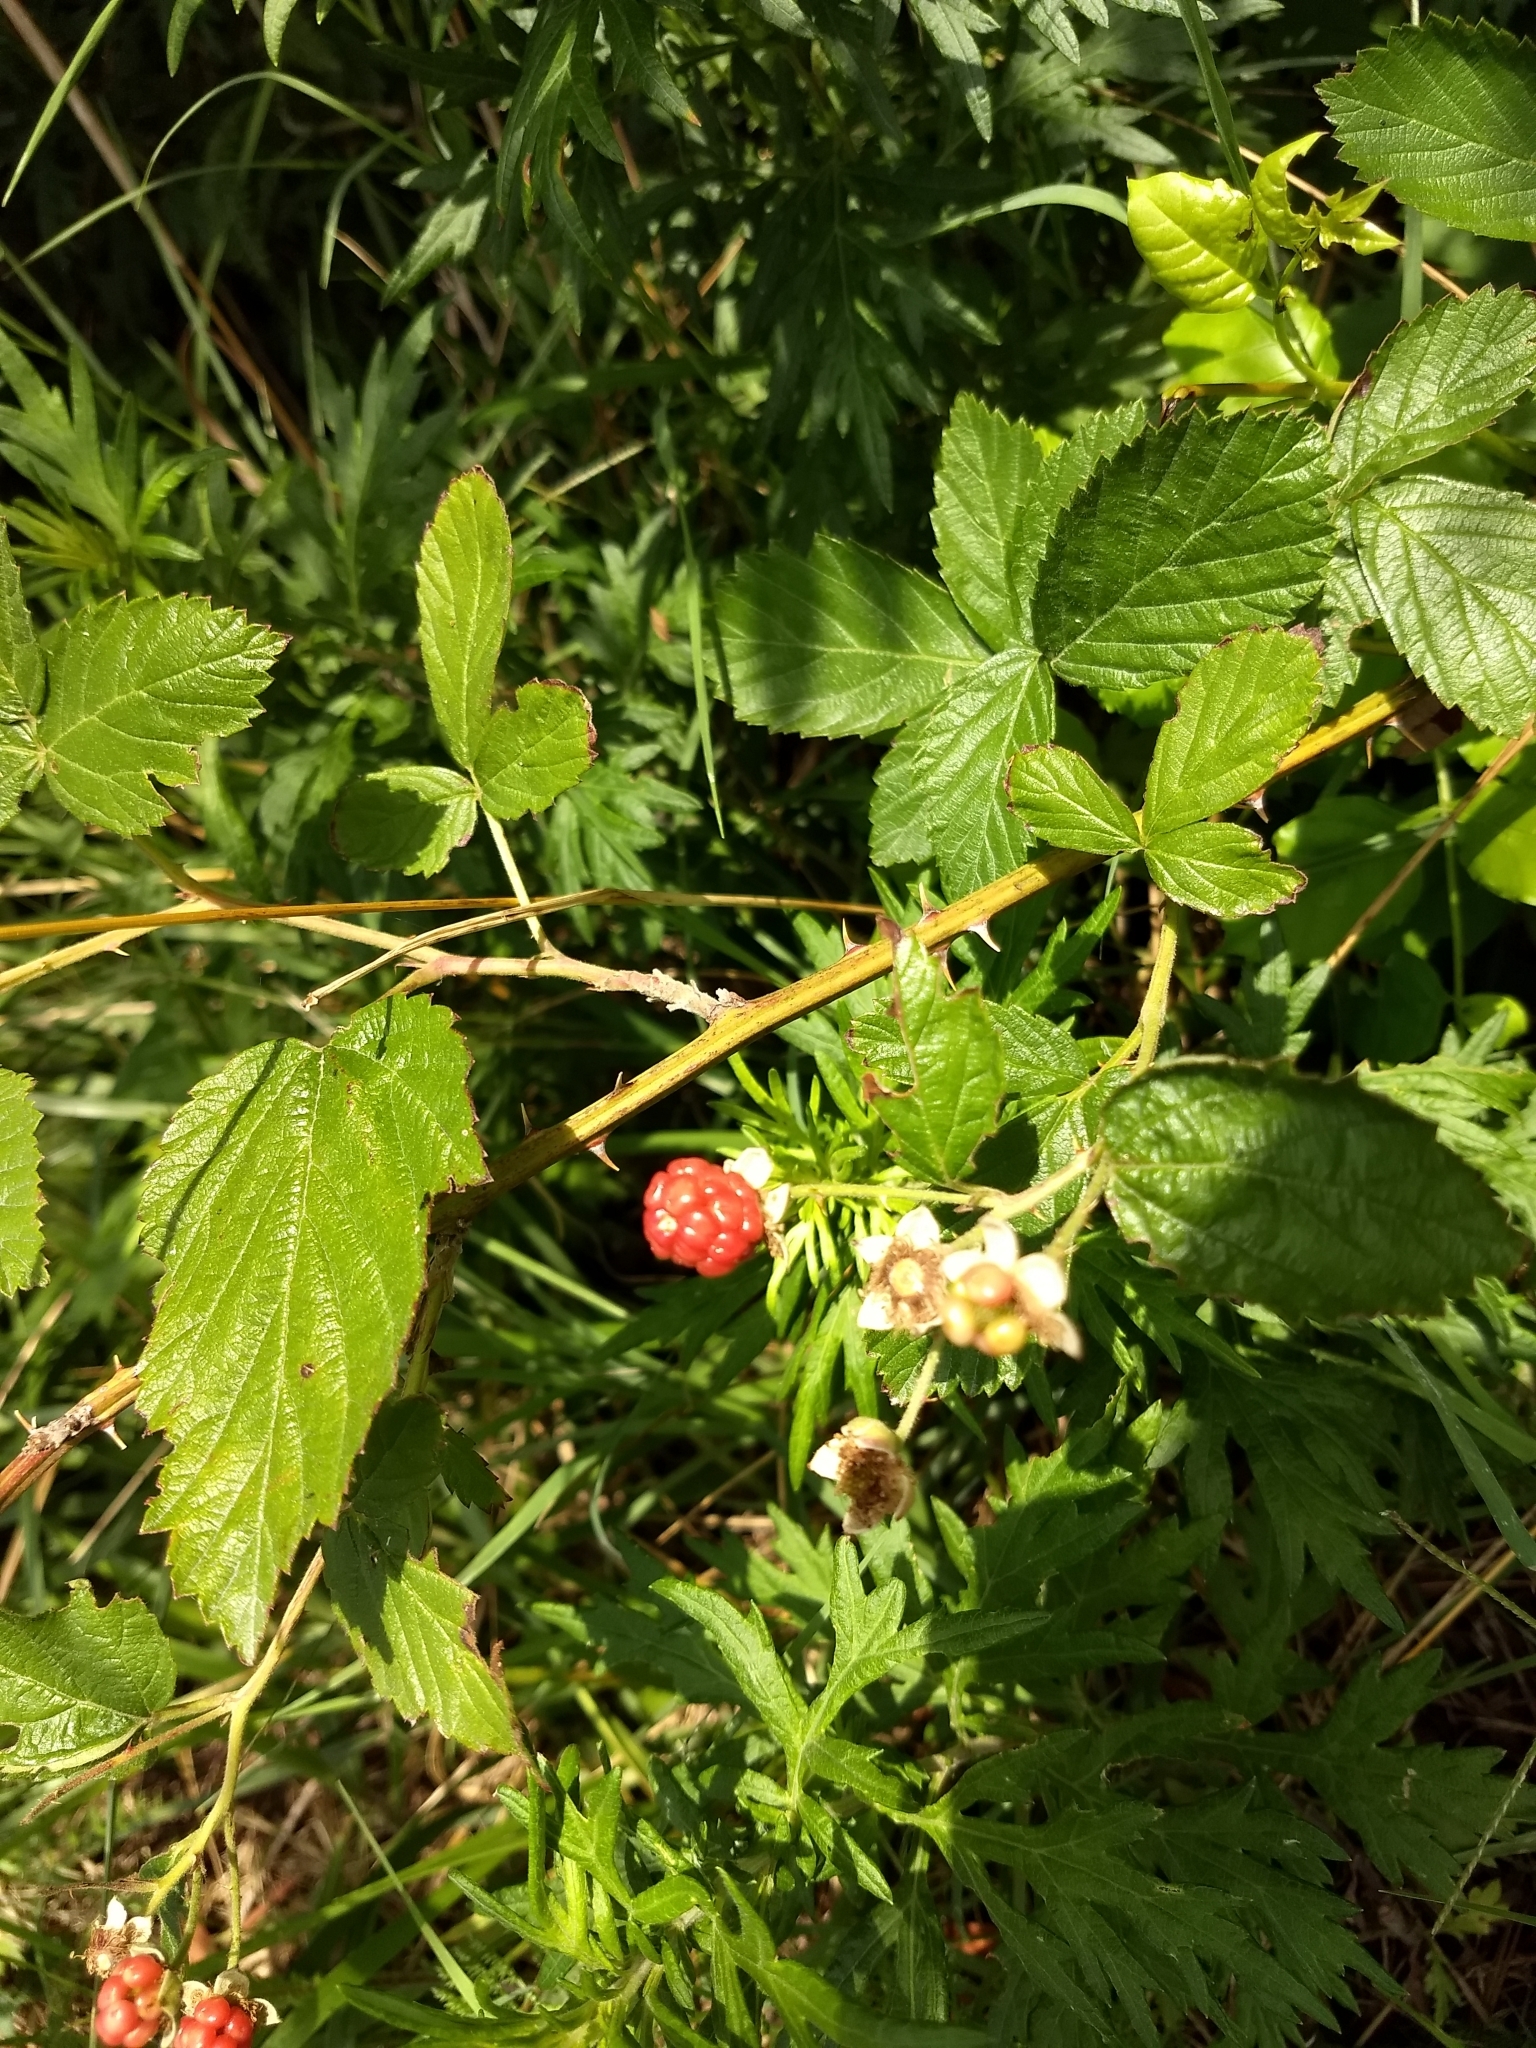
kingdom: Plantae
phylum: Tracheophyta
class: Magnoliopsida
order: Rosales
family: Rosaceae
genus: Rubus
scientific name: Rubus
